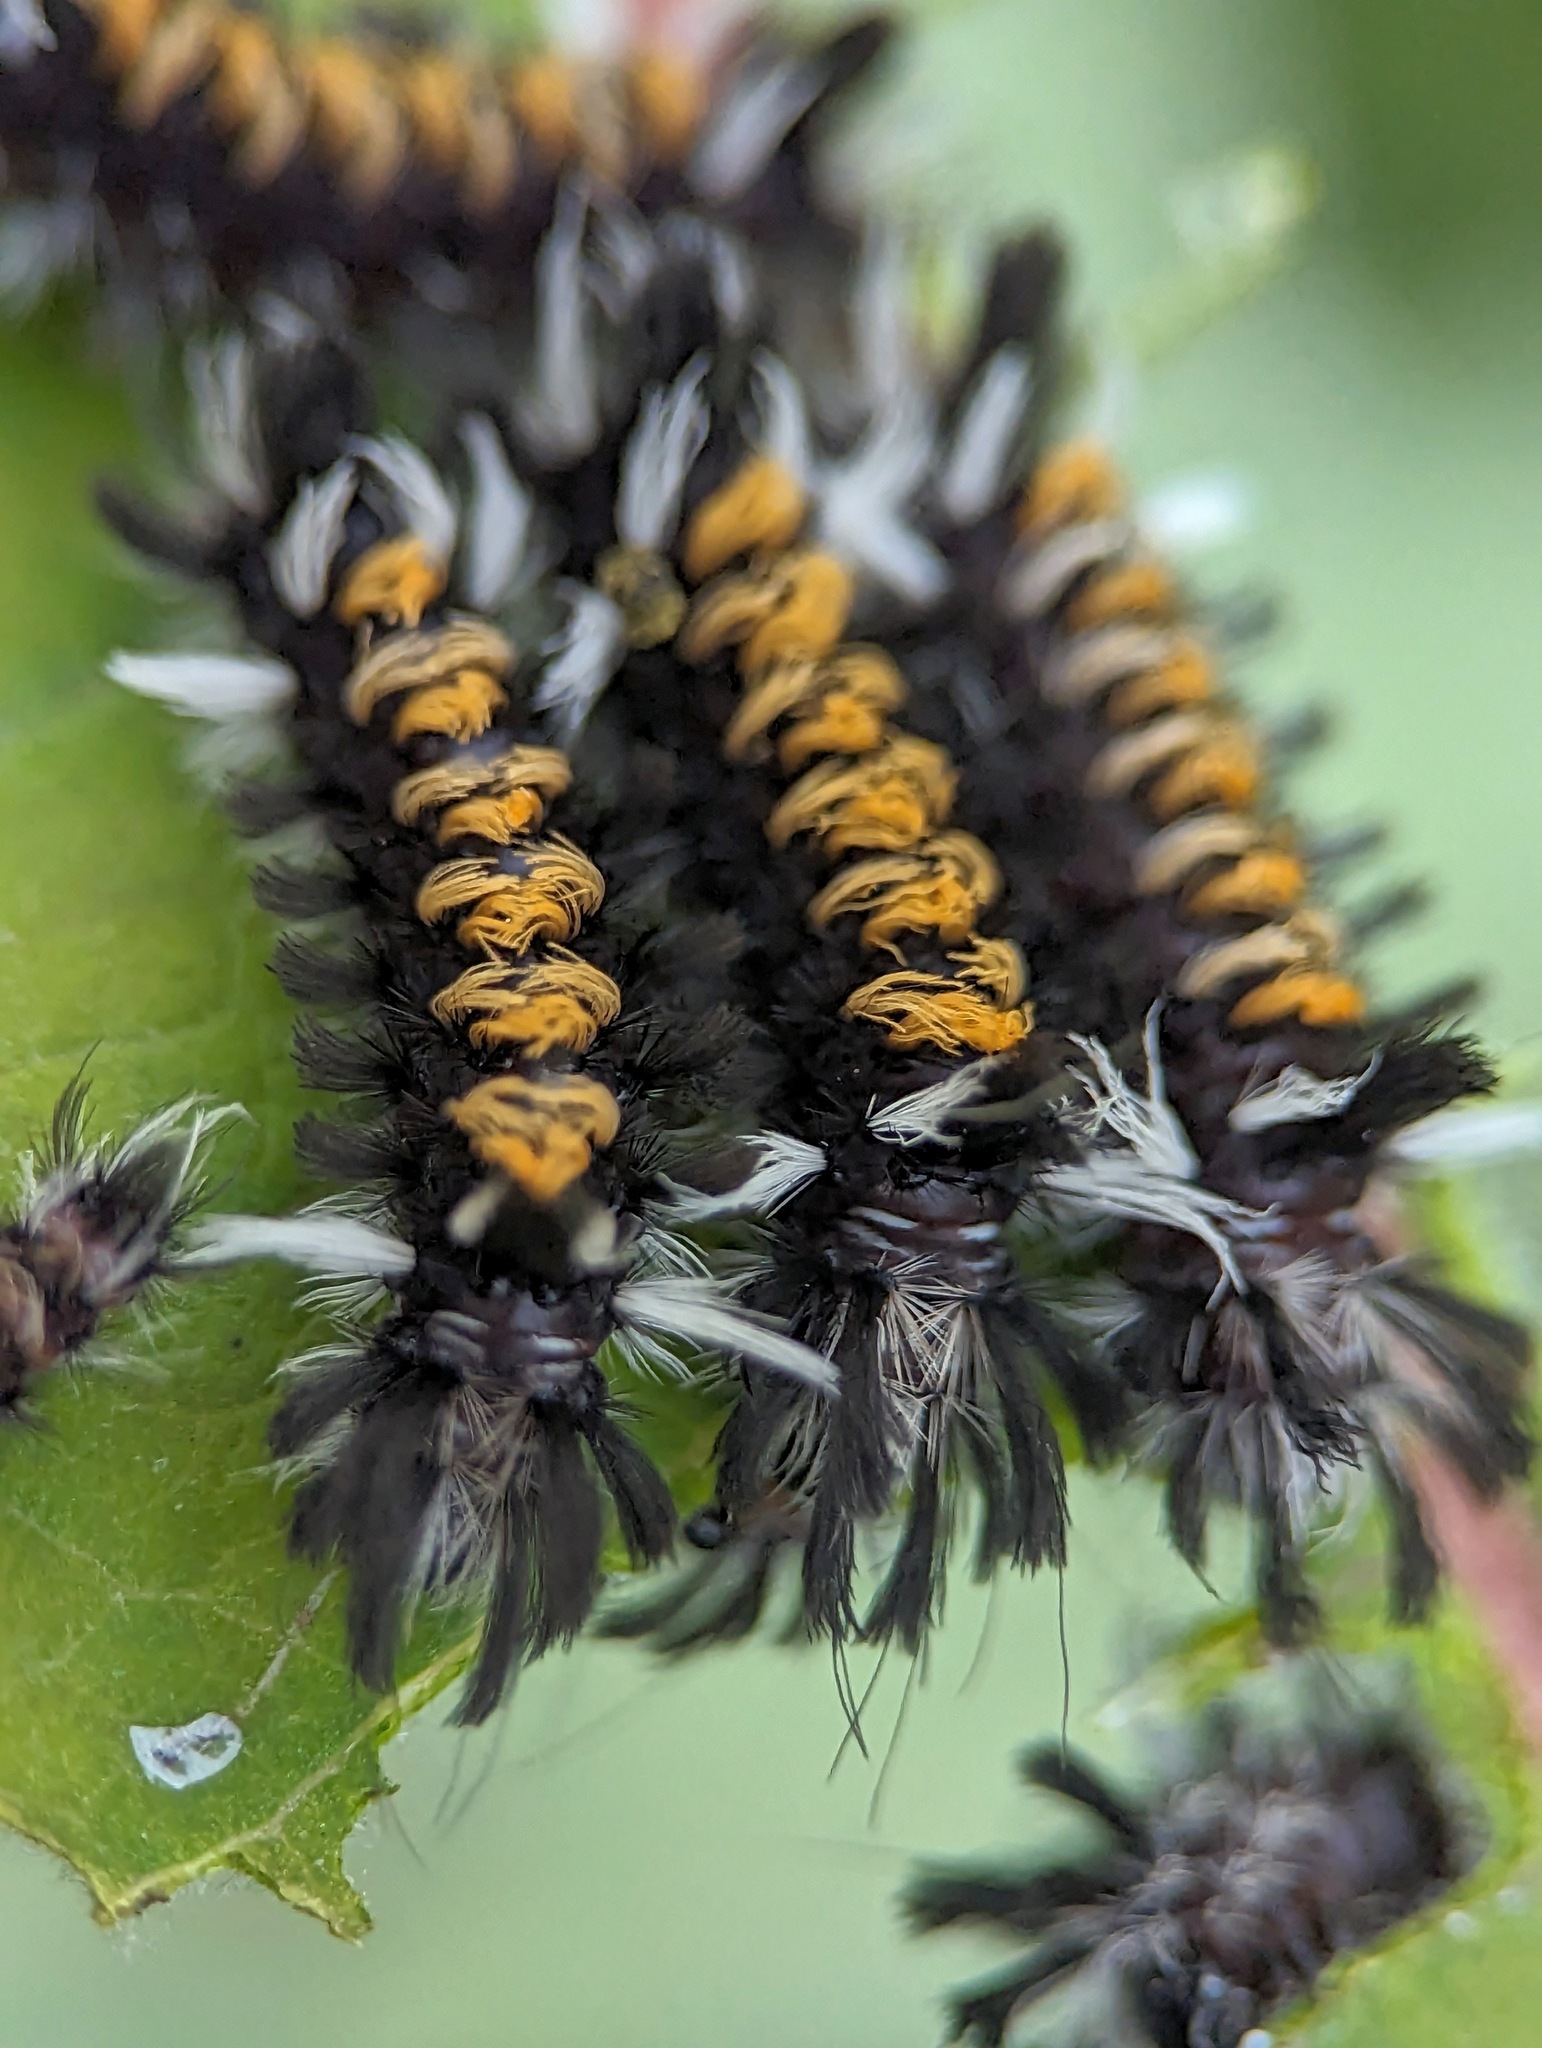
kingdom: Animalia
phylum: Arthropoda
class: Insecta
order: Lepidoptera
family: Erebidae
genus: Euchaetes
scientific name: Euchaetes egle
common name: Milkweed tussock moth
